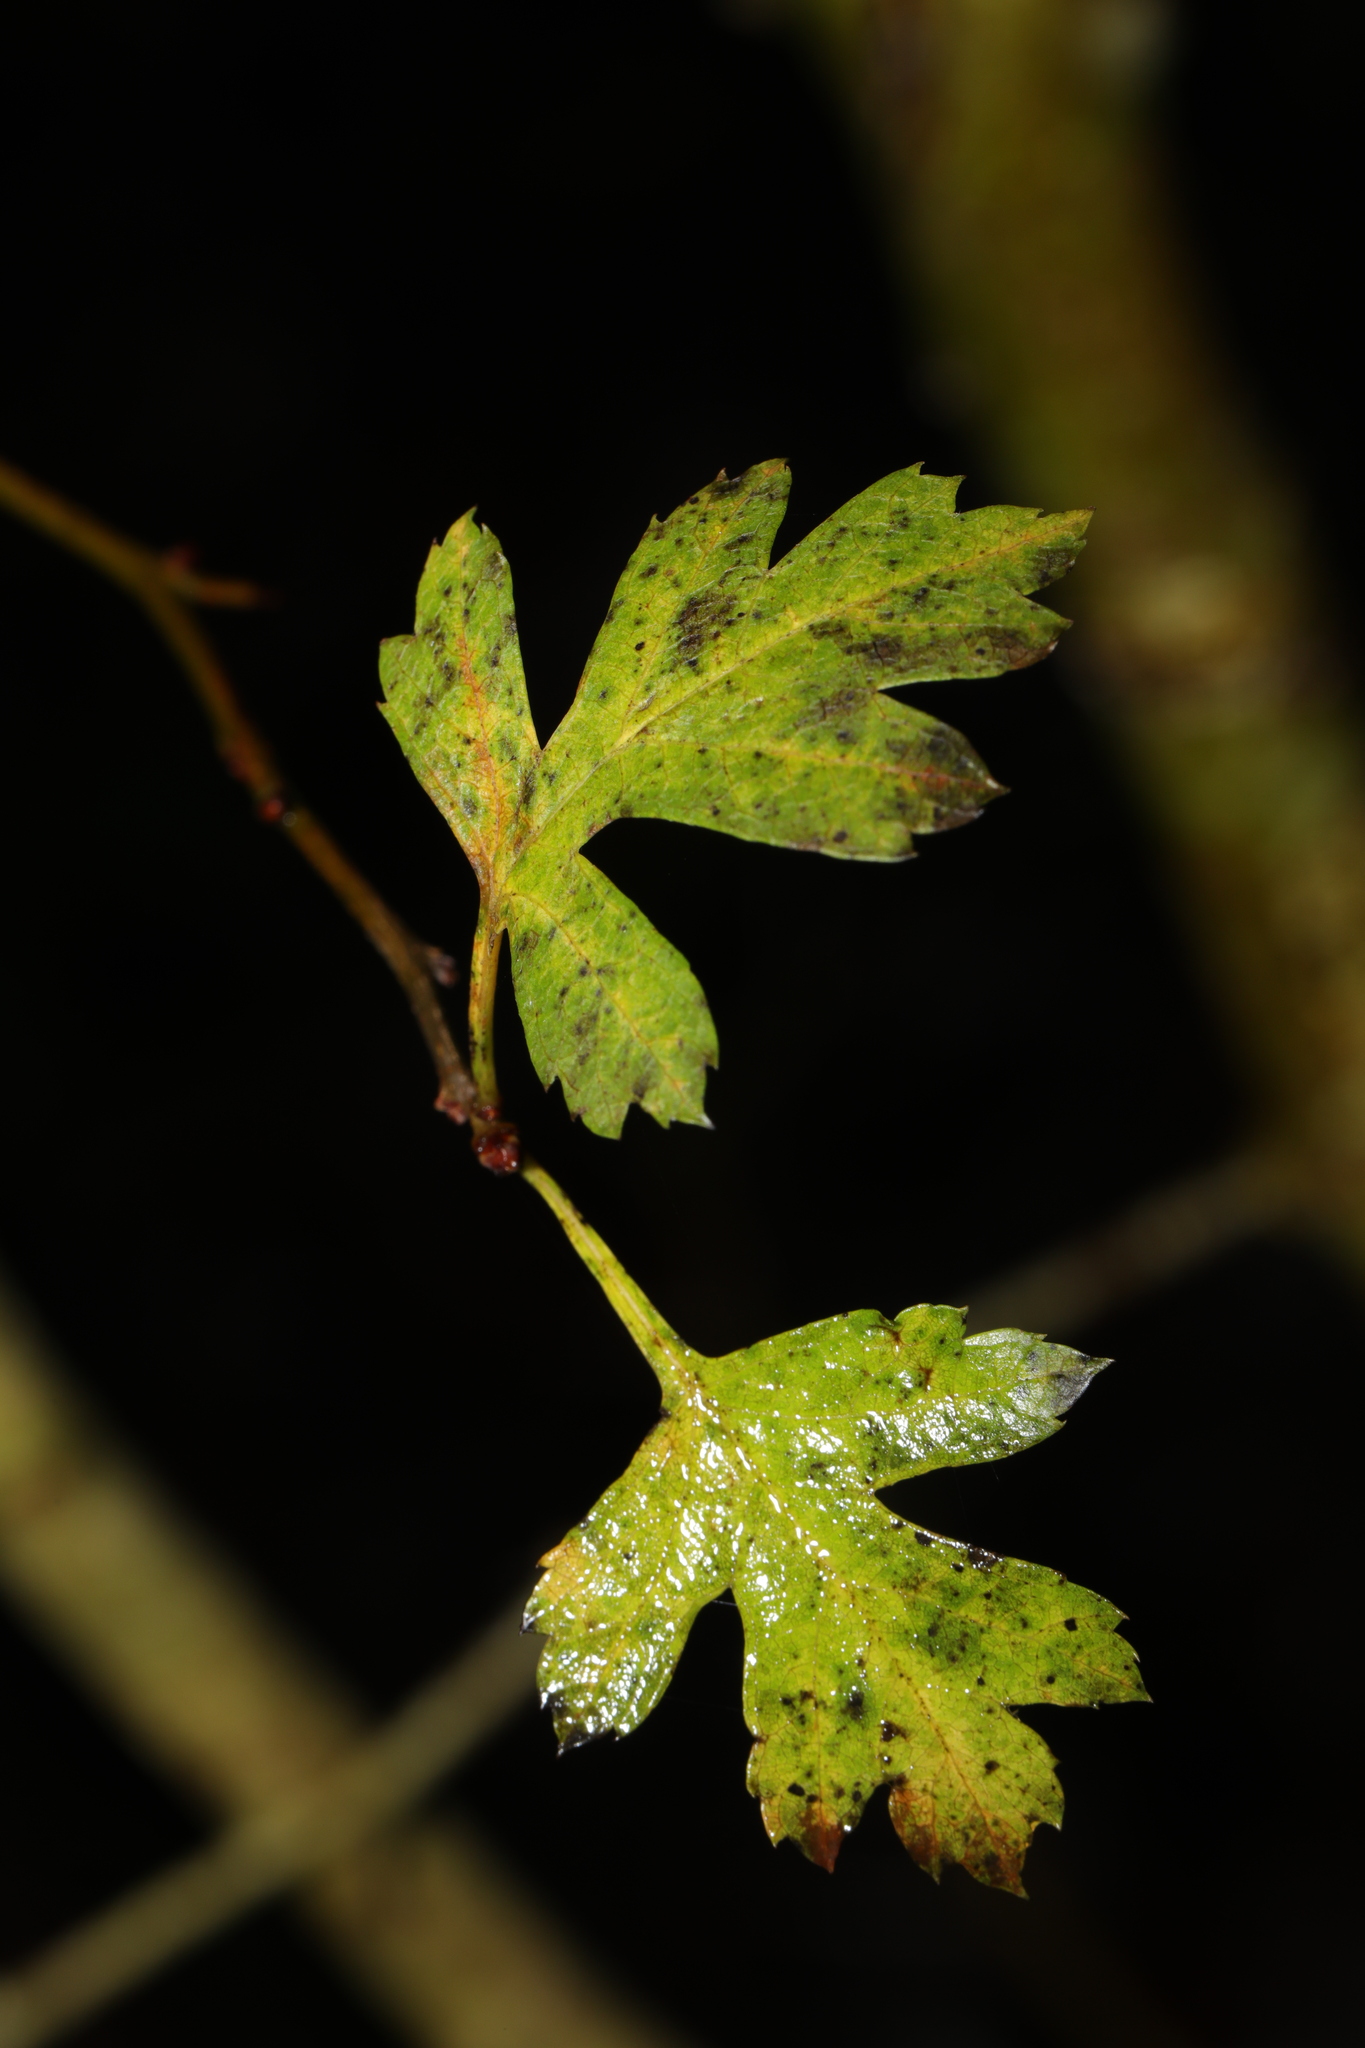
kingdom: Plantae
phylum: Tracheophyta
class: Magnoliopsida
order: Rosales
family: Rosaceae
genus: Crataegus
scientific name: Crataegus monogyna
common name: Hawthorn
